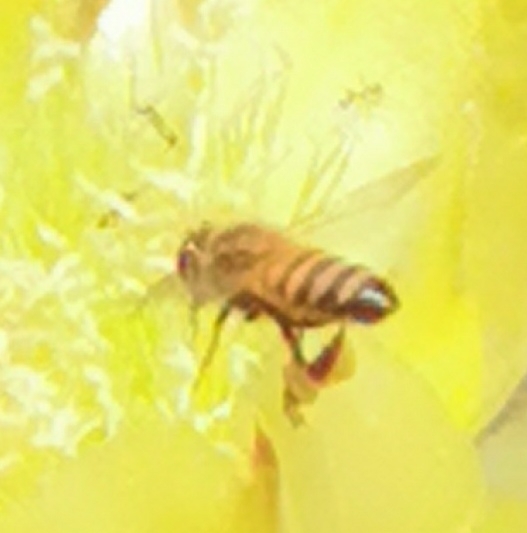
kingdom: Animalia
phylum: Arthropoda
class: Insecta
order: Hymenoptera
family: Apidae
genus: Apis
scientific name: Apis mellifera
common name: Honey bee
